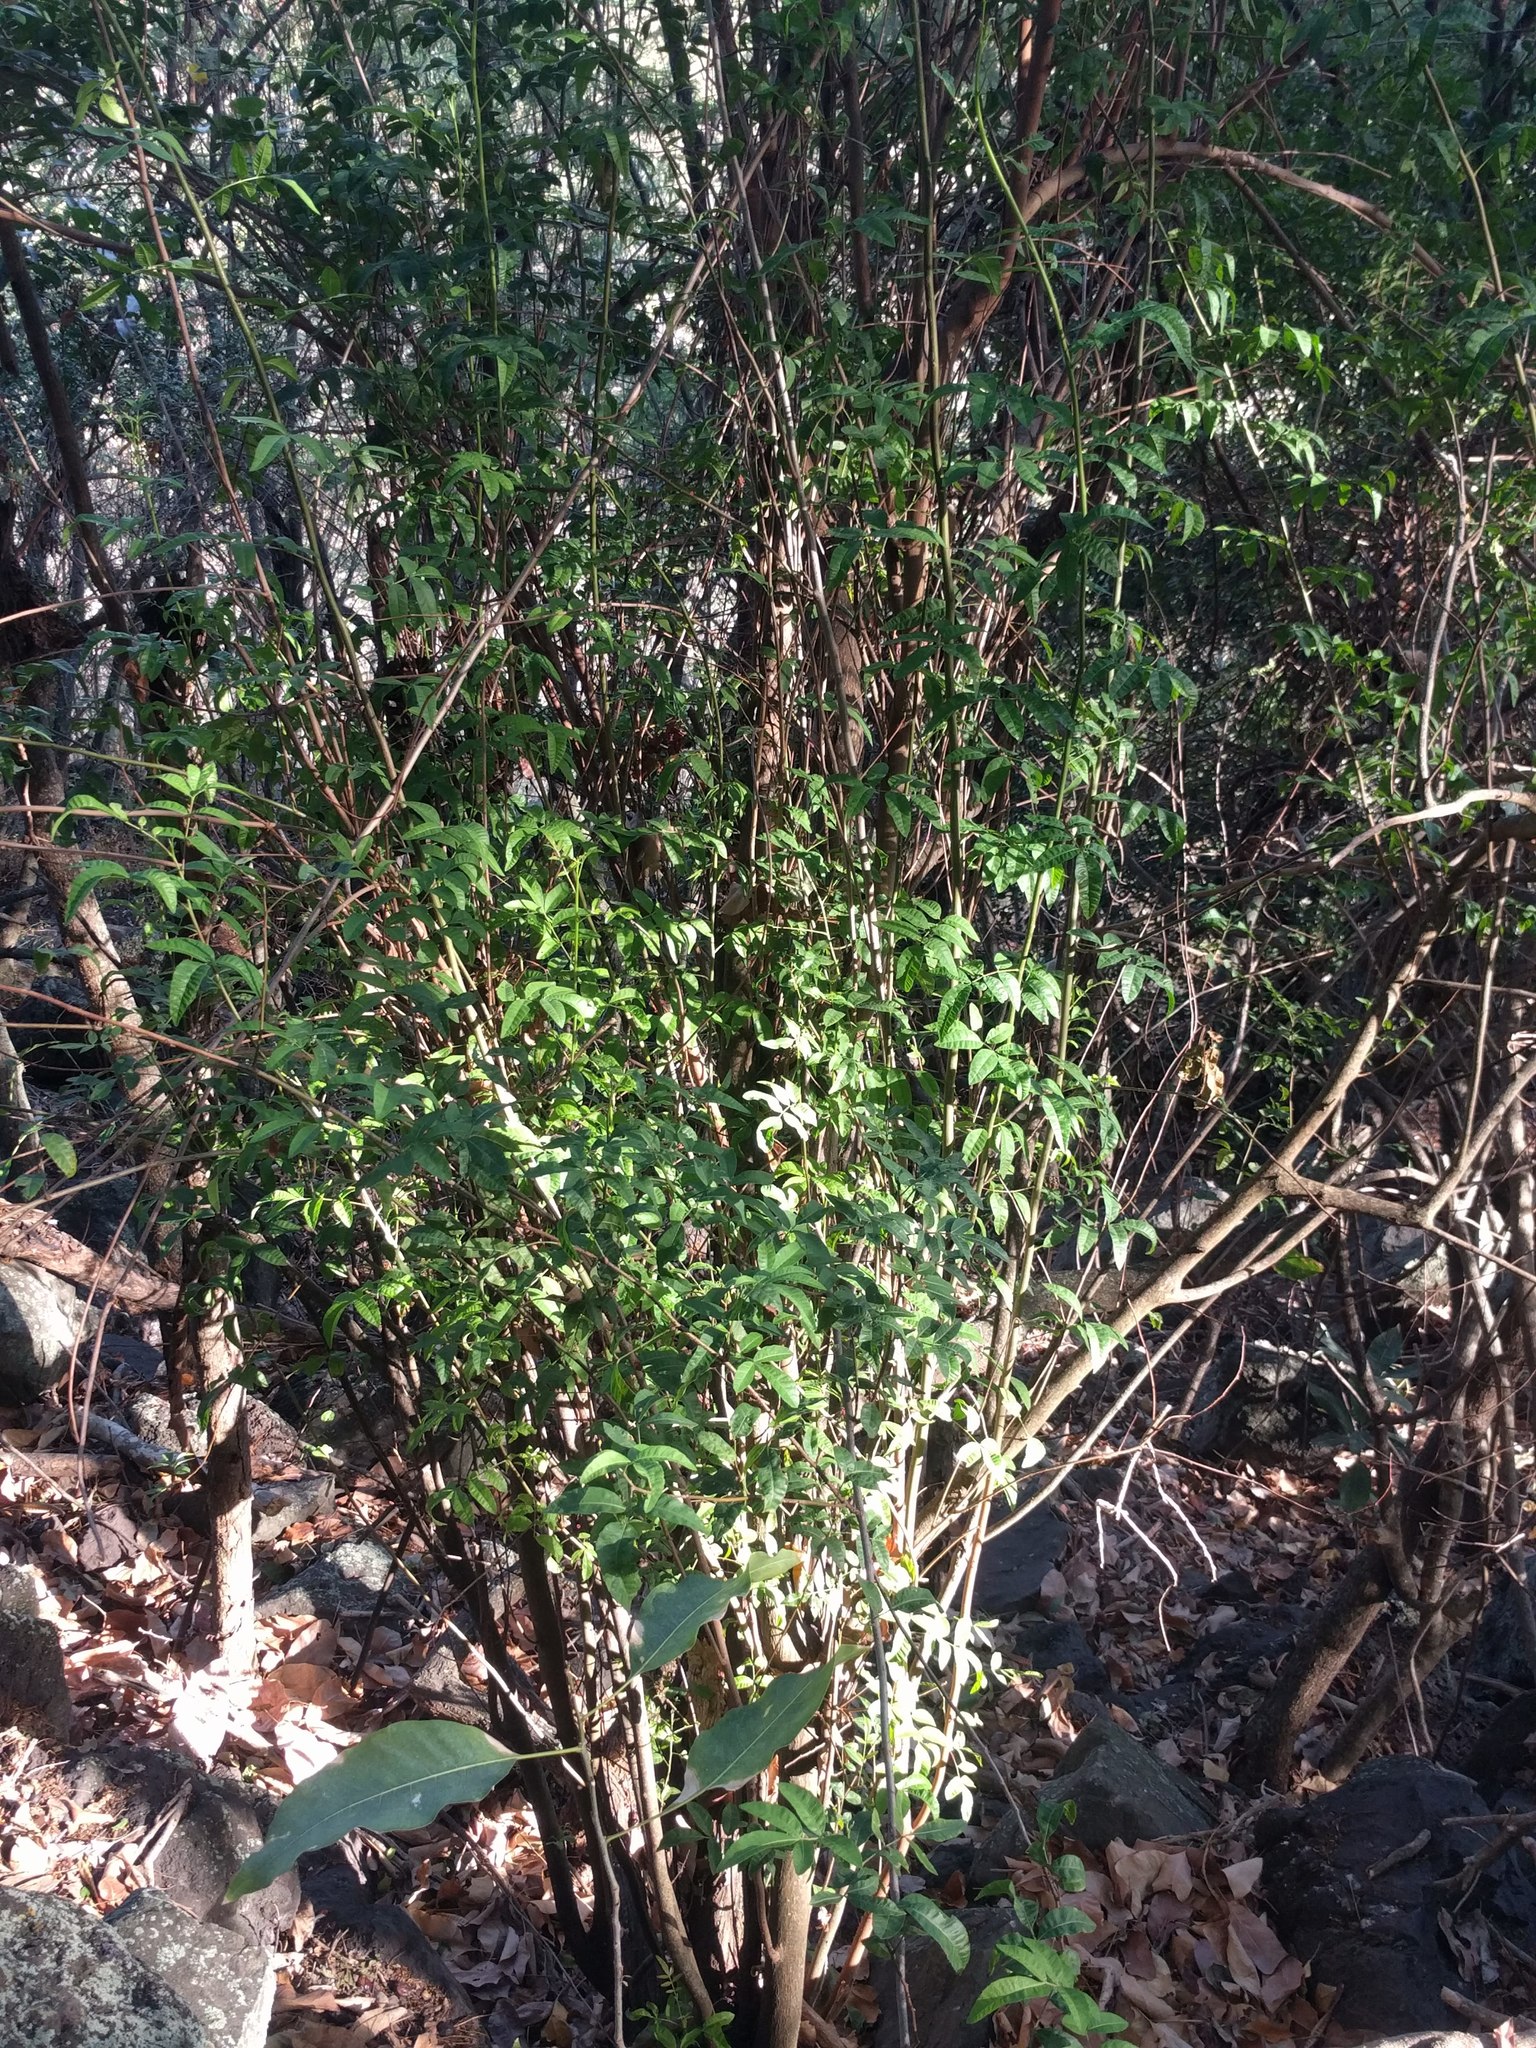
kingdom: Plantae
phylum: Tracheophyta
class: Magnoliopsida
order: Sapindales
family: Anacardiaceae
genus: Schinus
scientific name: Schinus terebinthifolia
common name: Brazilian peppertree
